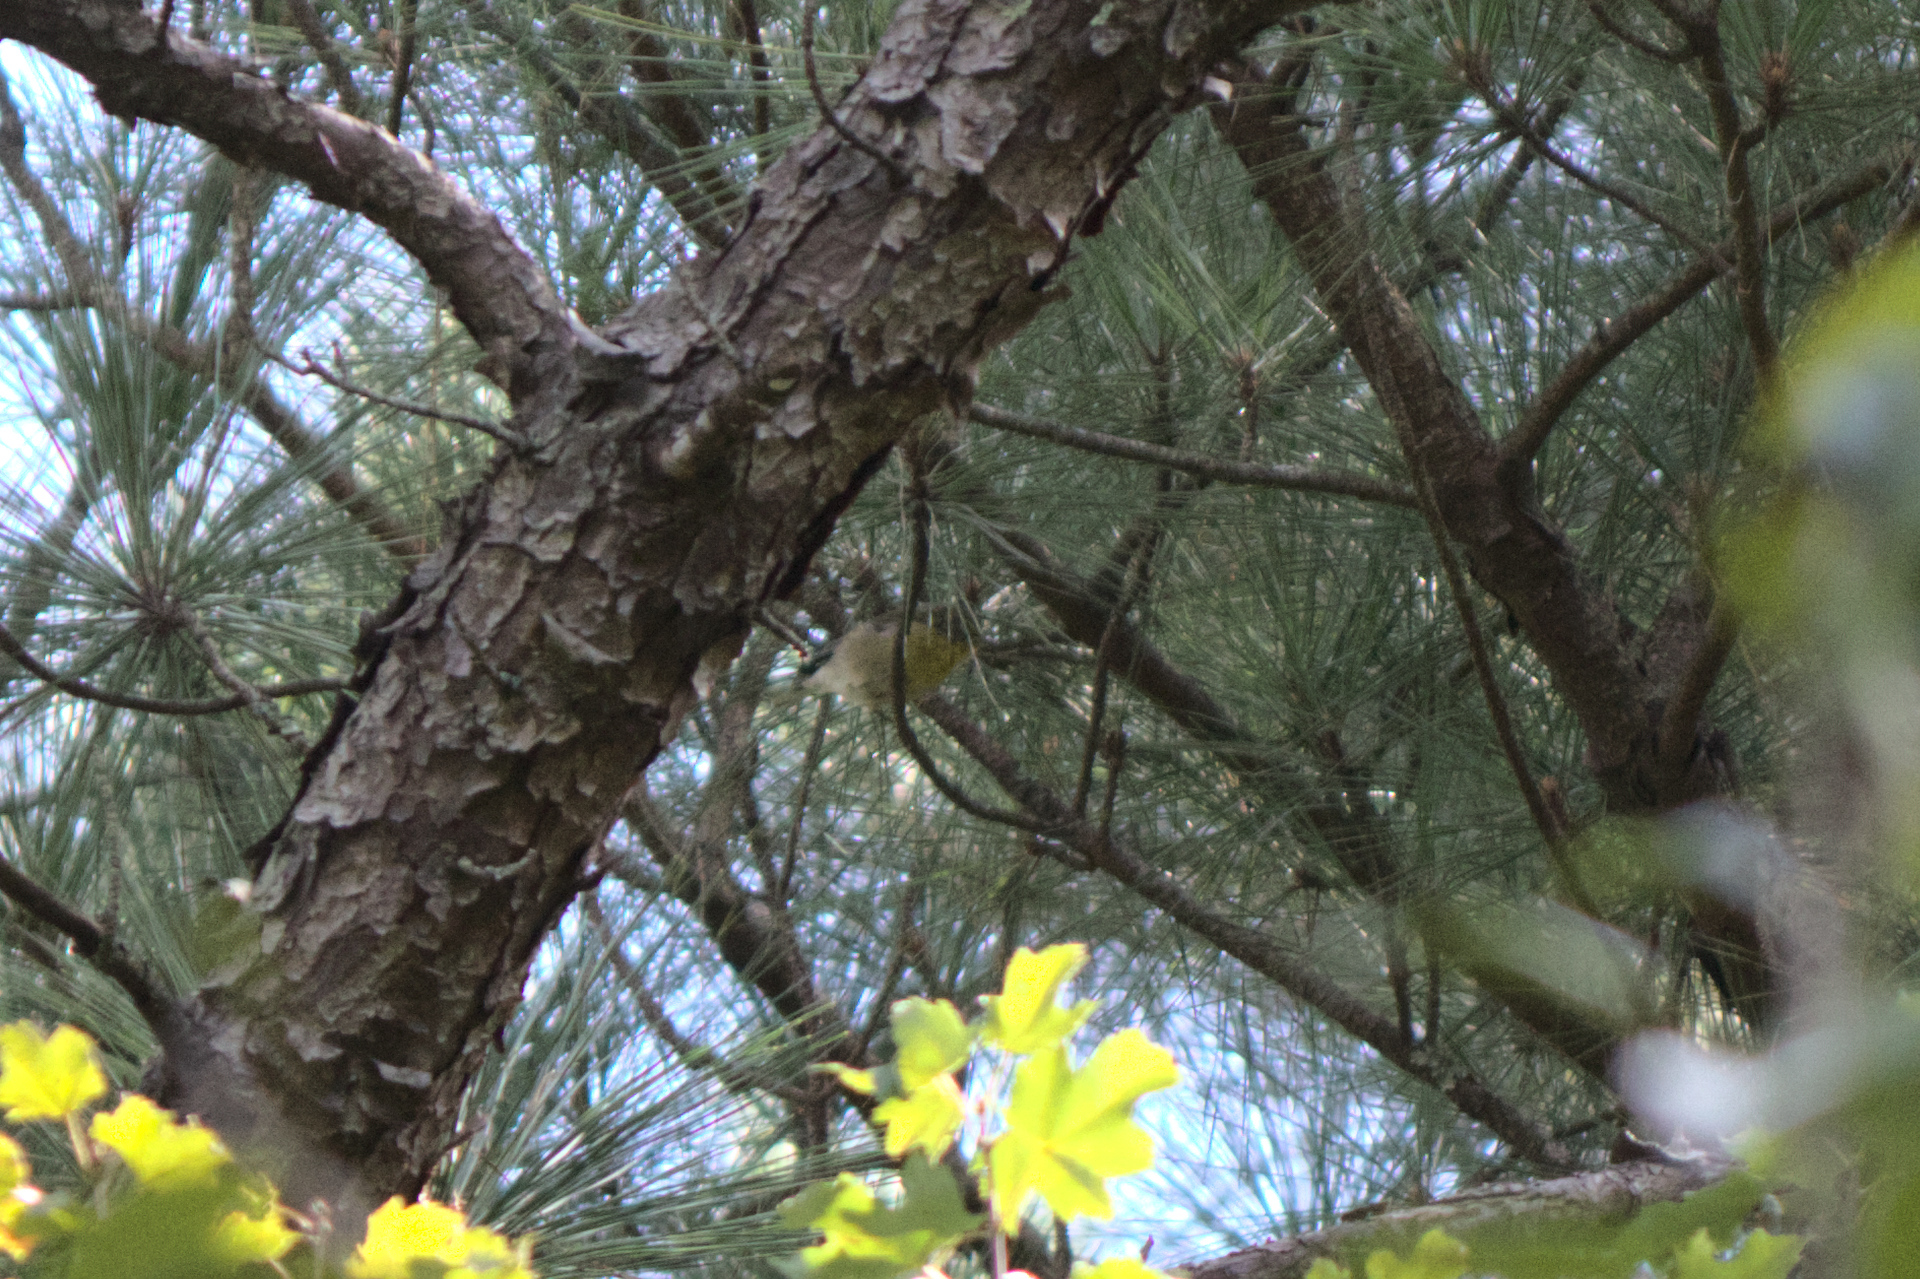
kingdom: Animalia
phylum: Chordata
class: Aves
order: Passeriformes
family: Parulidae
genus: Setophaga
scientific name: Setophaga pinus
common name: Pine warbler
